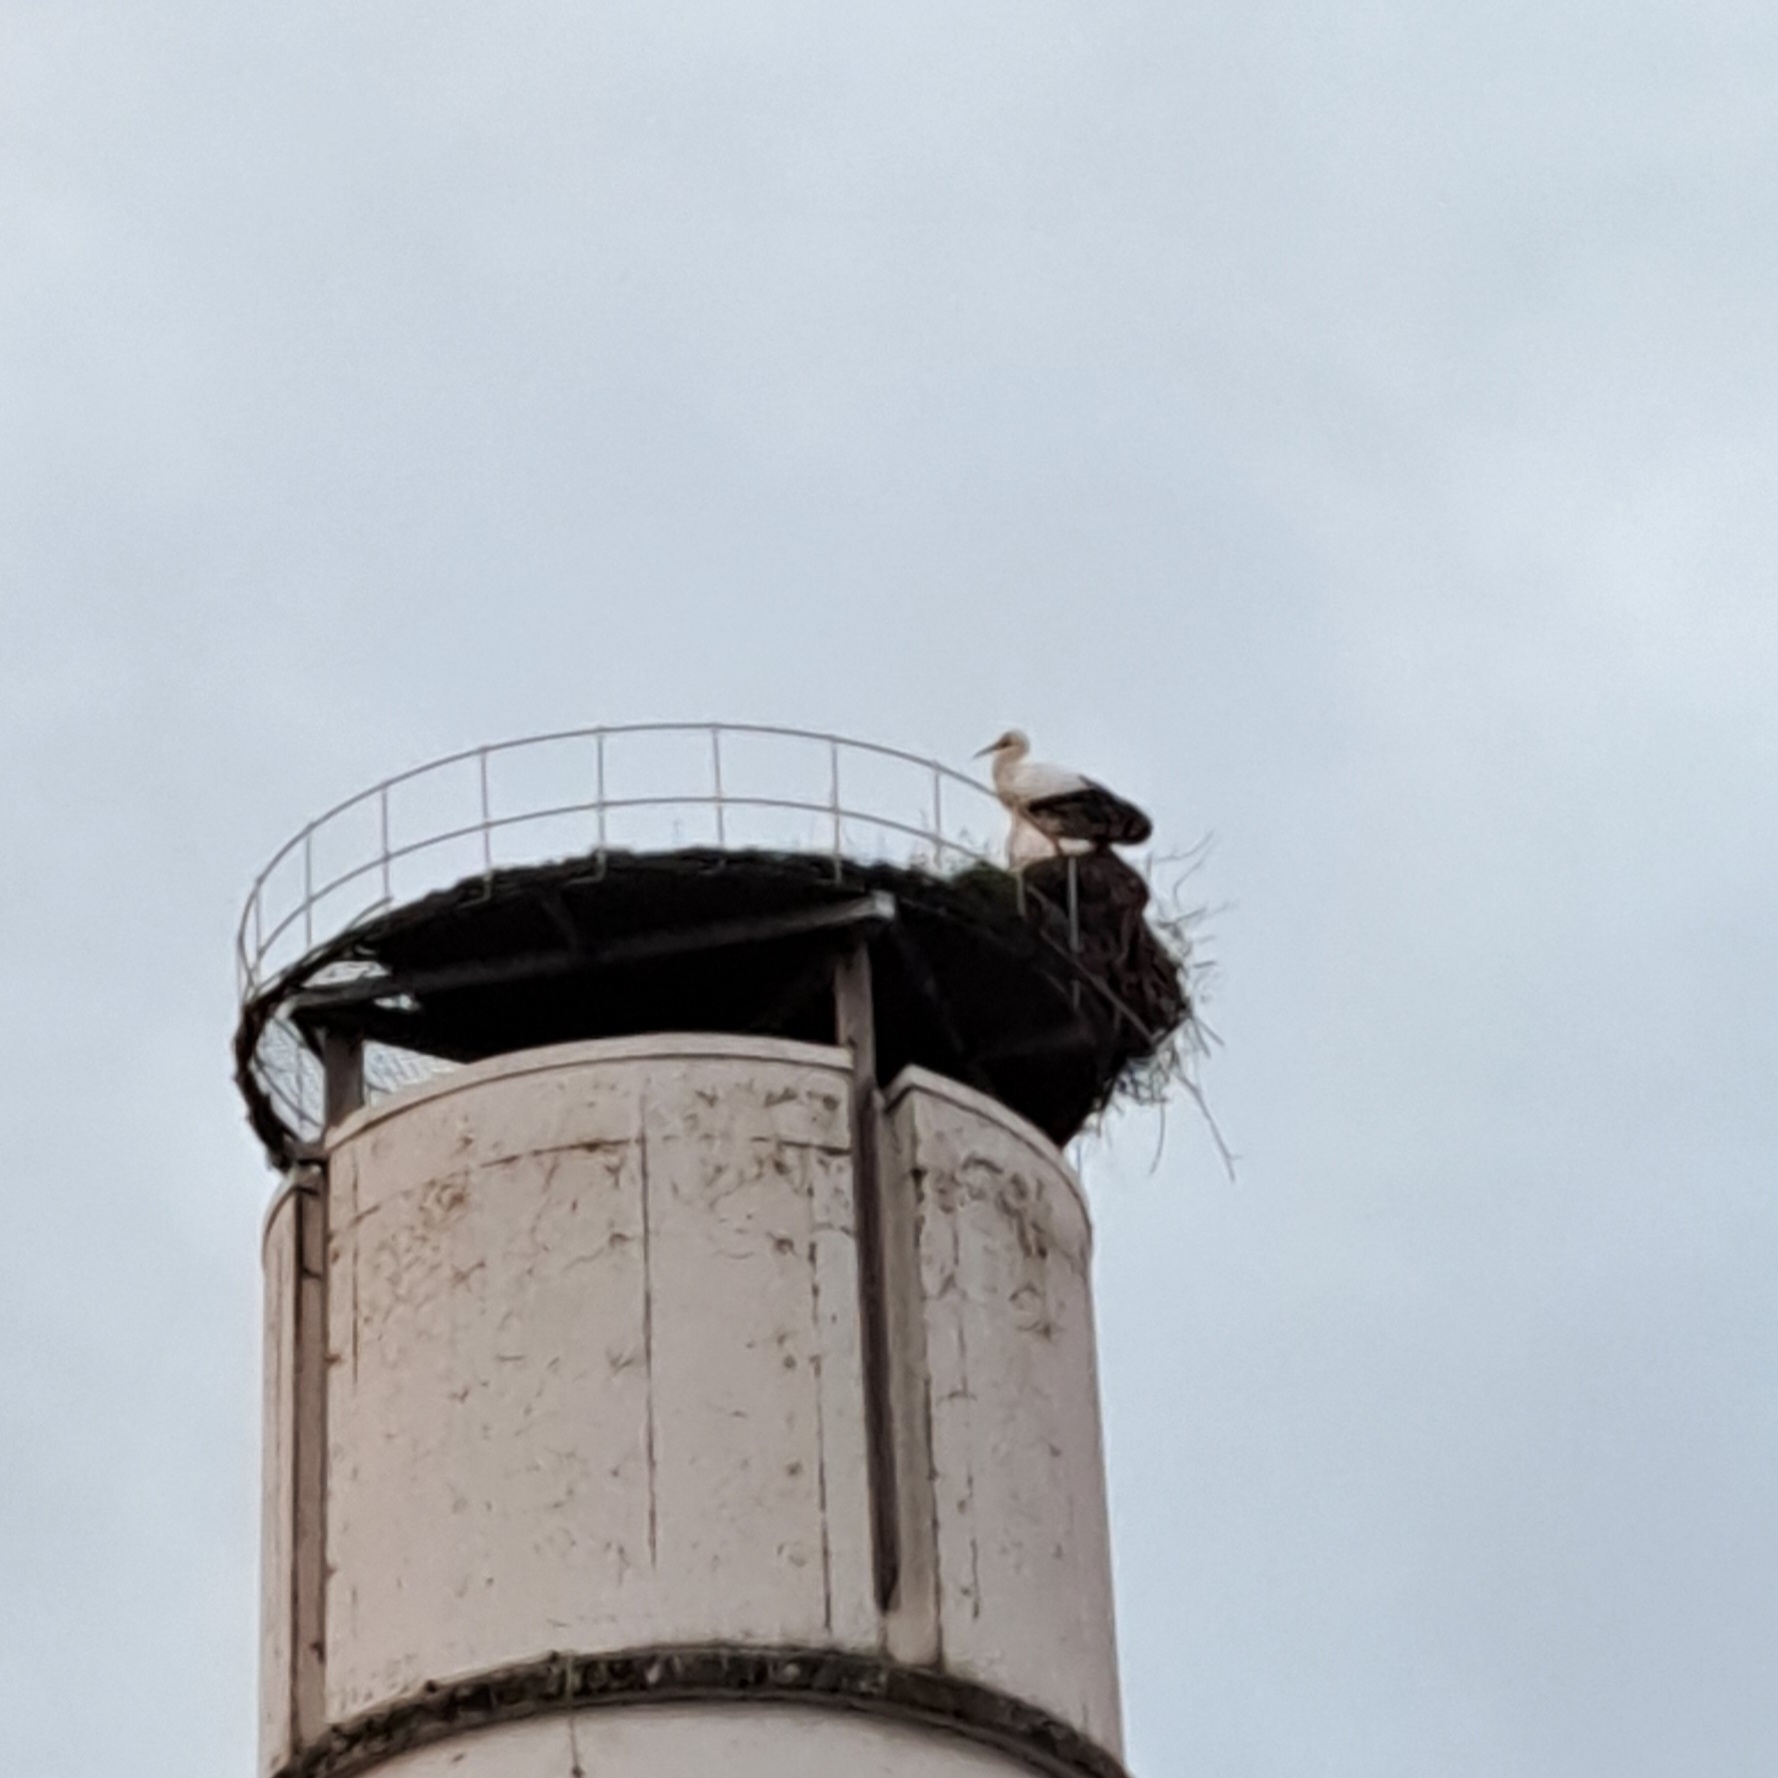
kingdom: Animalia
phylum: Chordata
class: Aves
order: Ciconiiformes
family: Ciconiidae
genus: Ciconia
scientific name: Ciconia ciconia
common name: White stork
